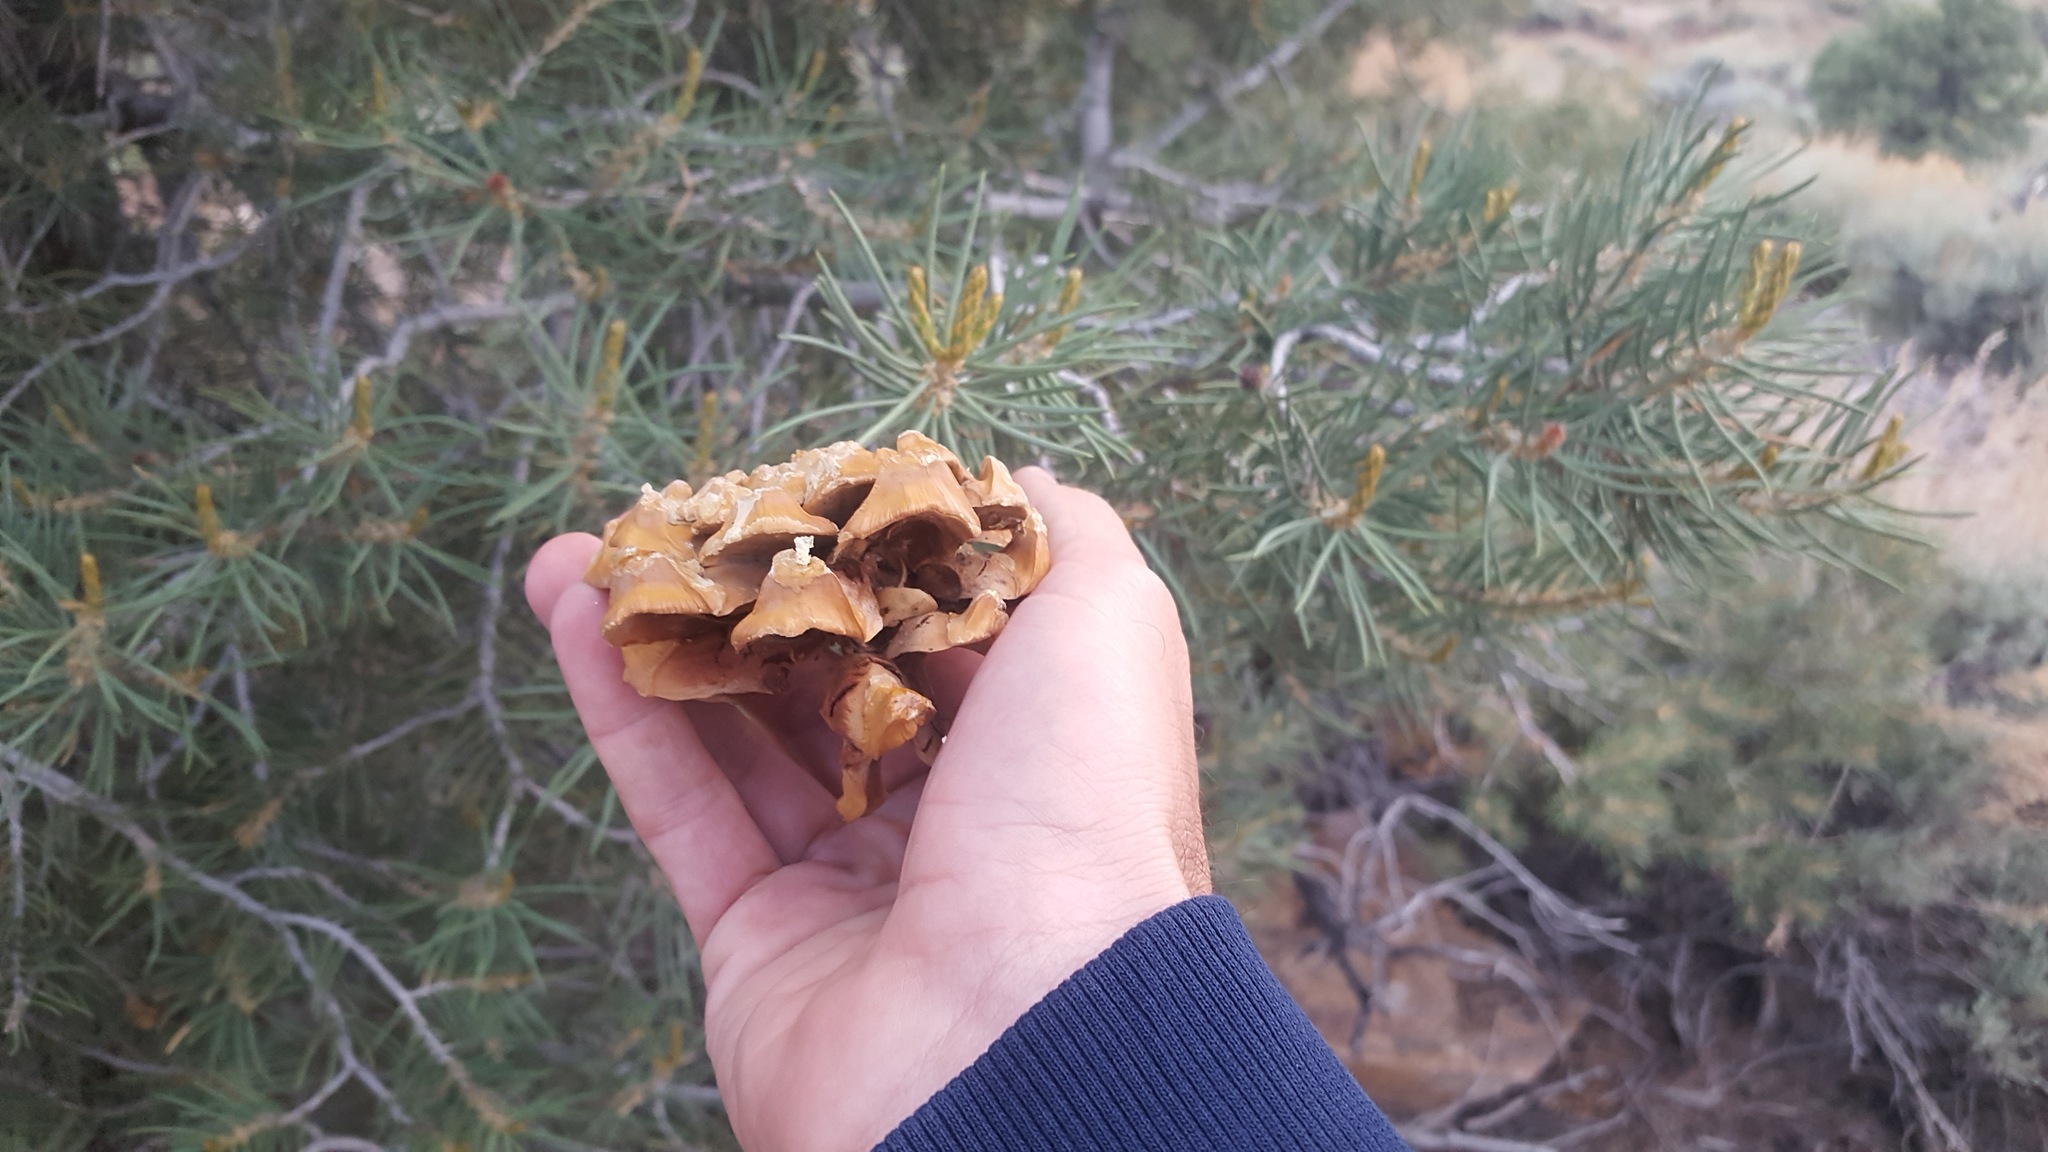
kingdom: Plantae
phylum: Tracheophyta
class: Pinopsida
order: Pinales
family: Pinaceae
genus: Pinus
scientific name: Pinus monophylla
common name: One-leaved nut pine
